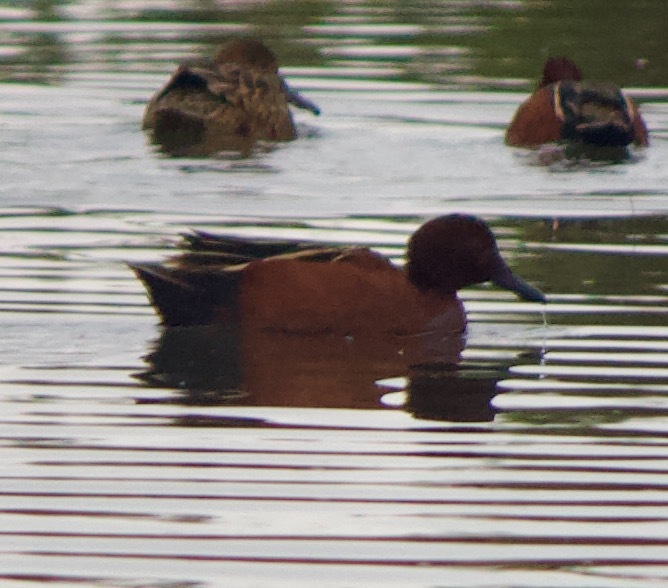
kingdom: Animalia
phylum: Chordata
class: Aves
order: Anseriformes
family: Anatidae
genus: Spatula
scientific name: Spatula cyanoptera
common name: Cinnamon teal
